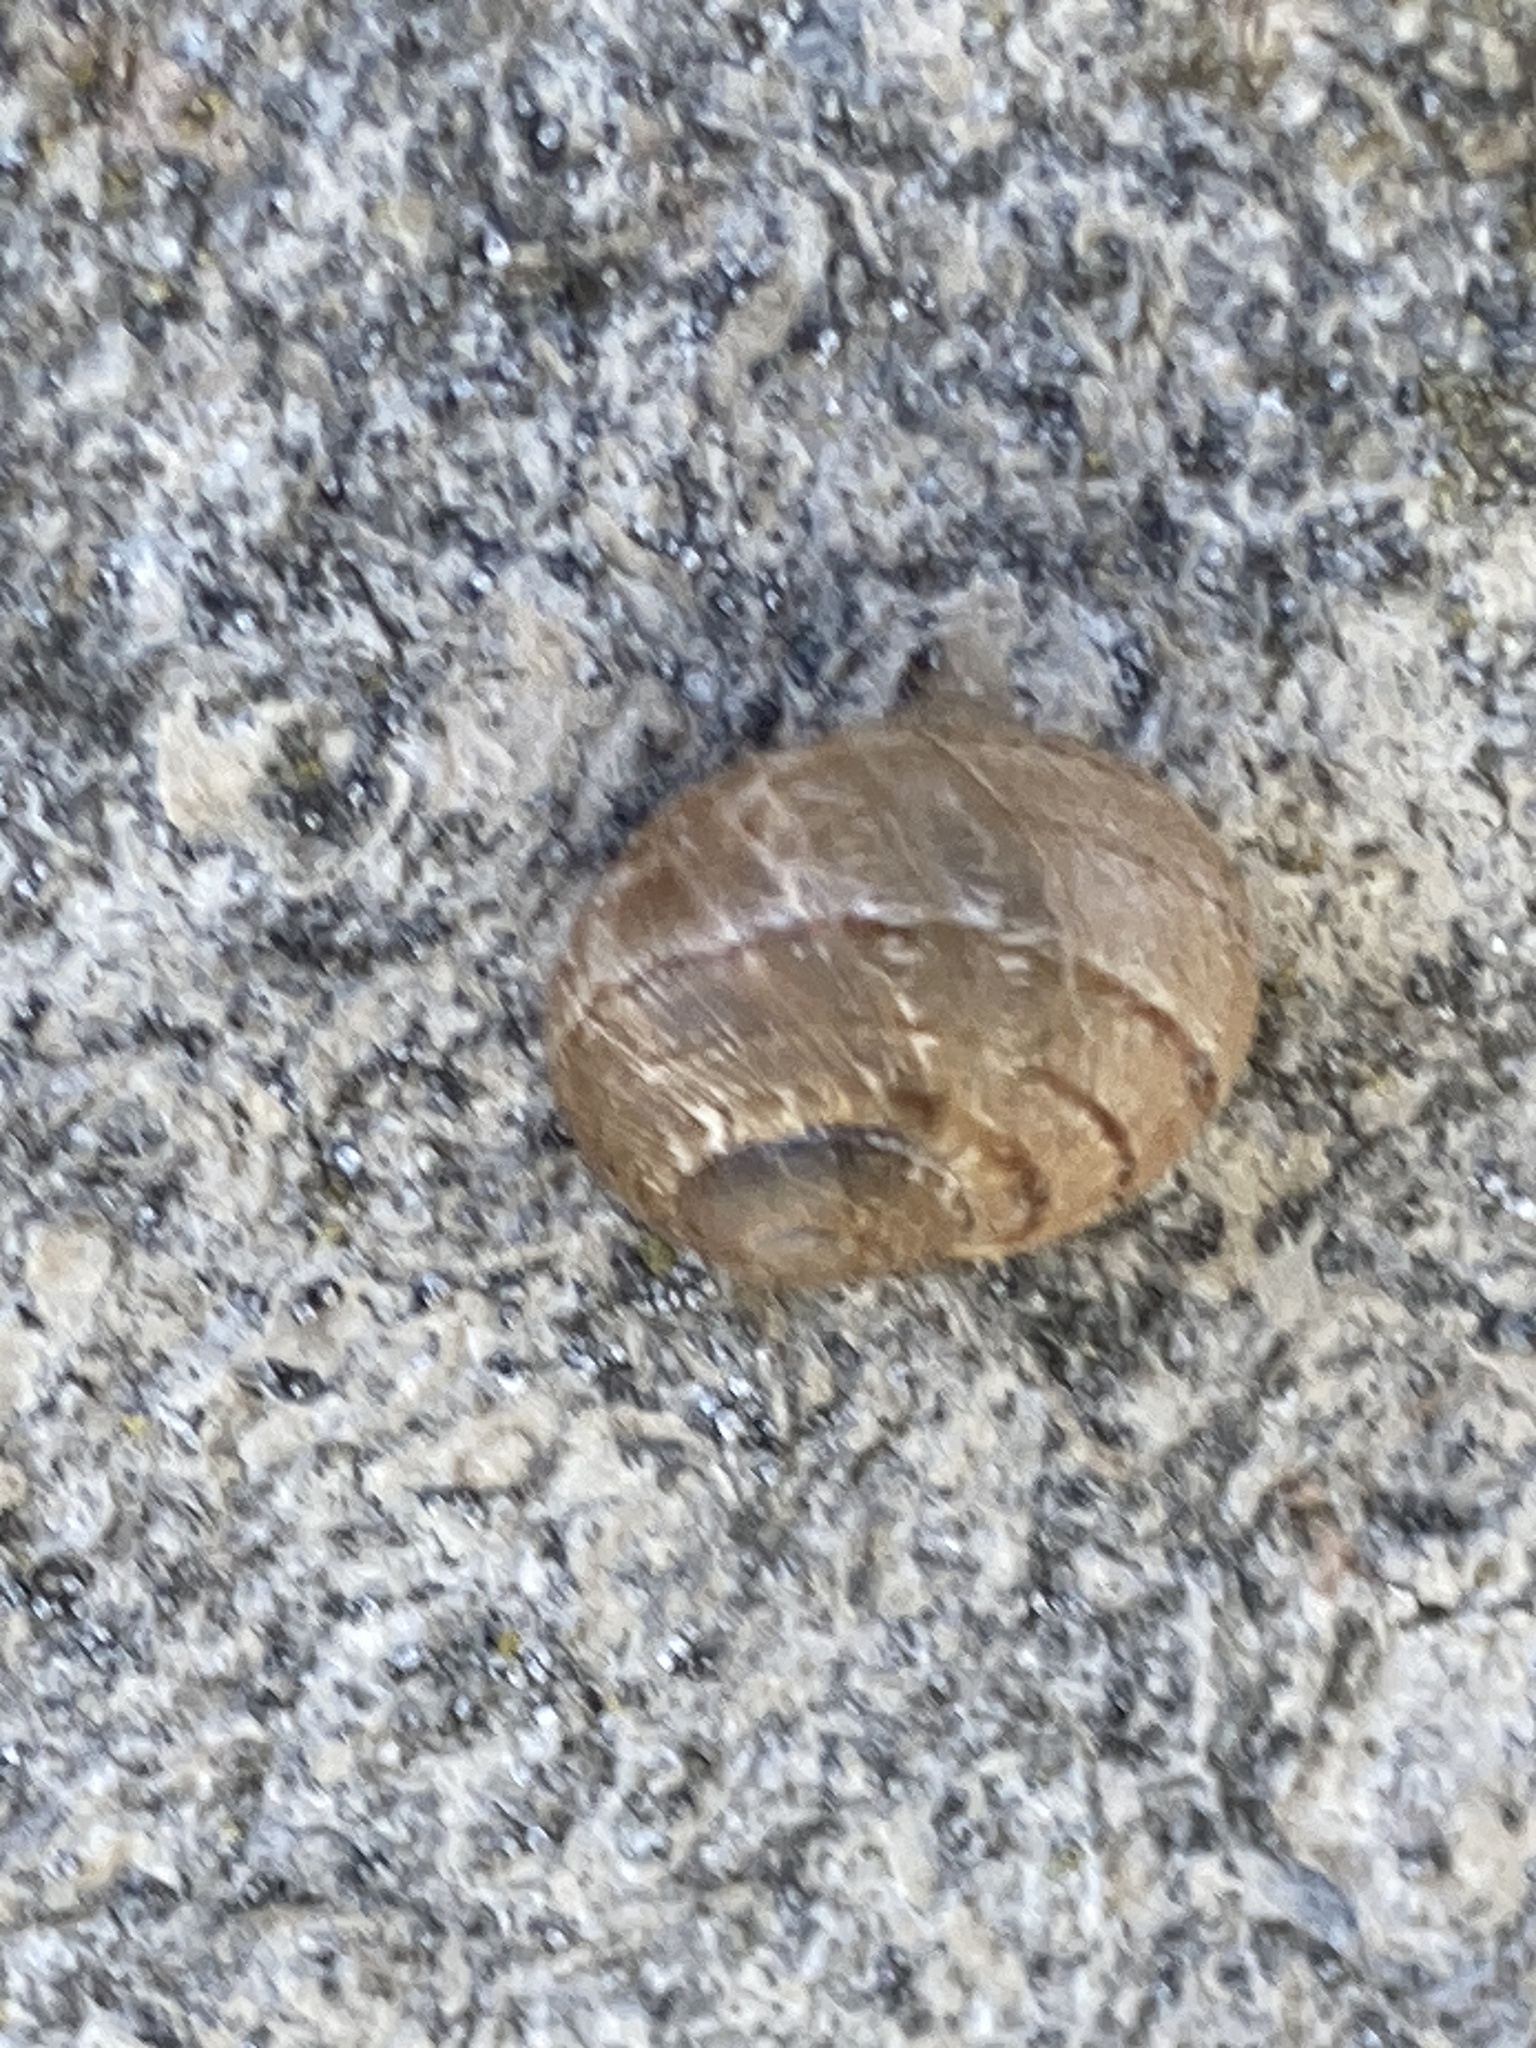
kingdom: Animalia
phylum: Mollusca
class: Gastropoda
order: Stylommatophora
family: Helicidae
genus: Cornu
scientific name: Cornu aspersum
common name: Brown garden snail
